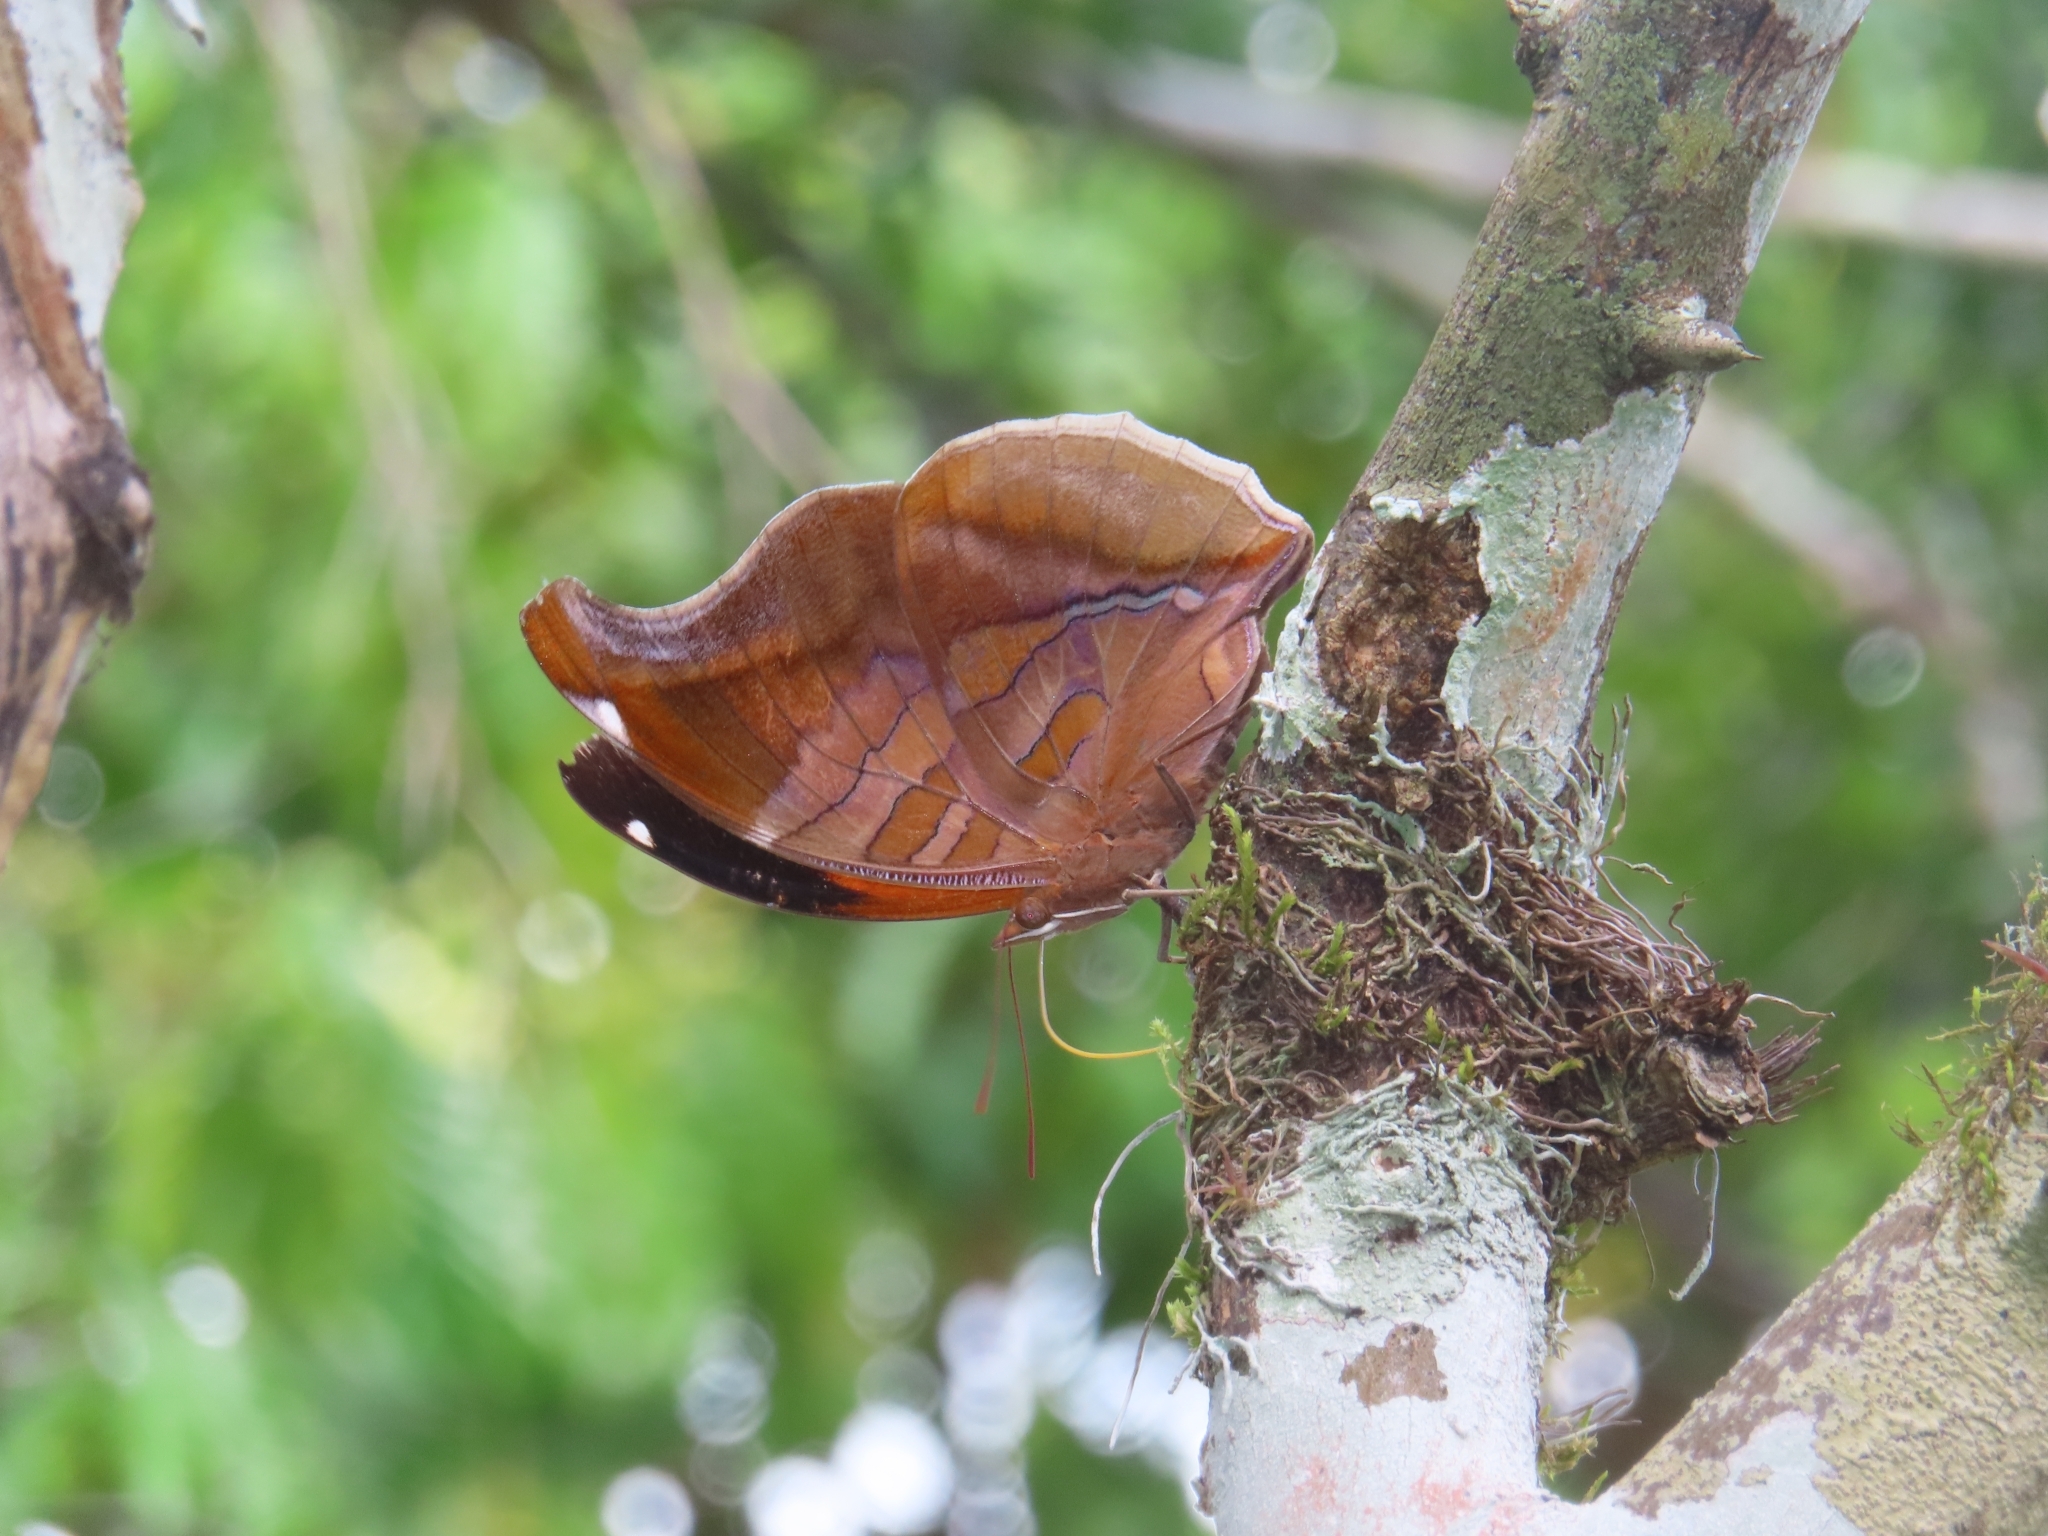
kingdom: Animalia
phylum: Arthropoda
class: Insecta
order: Lepidoptera
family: Nymphalidae
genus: Historis
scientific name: Historis odius
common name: Orion cecropian
